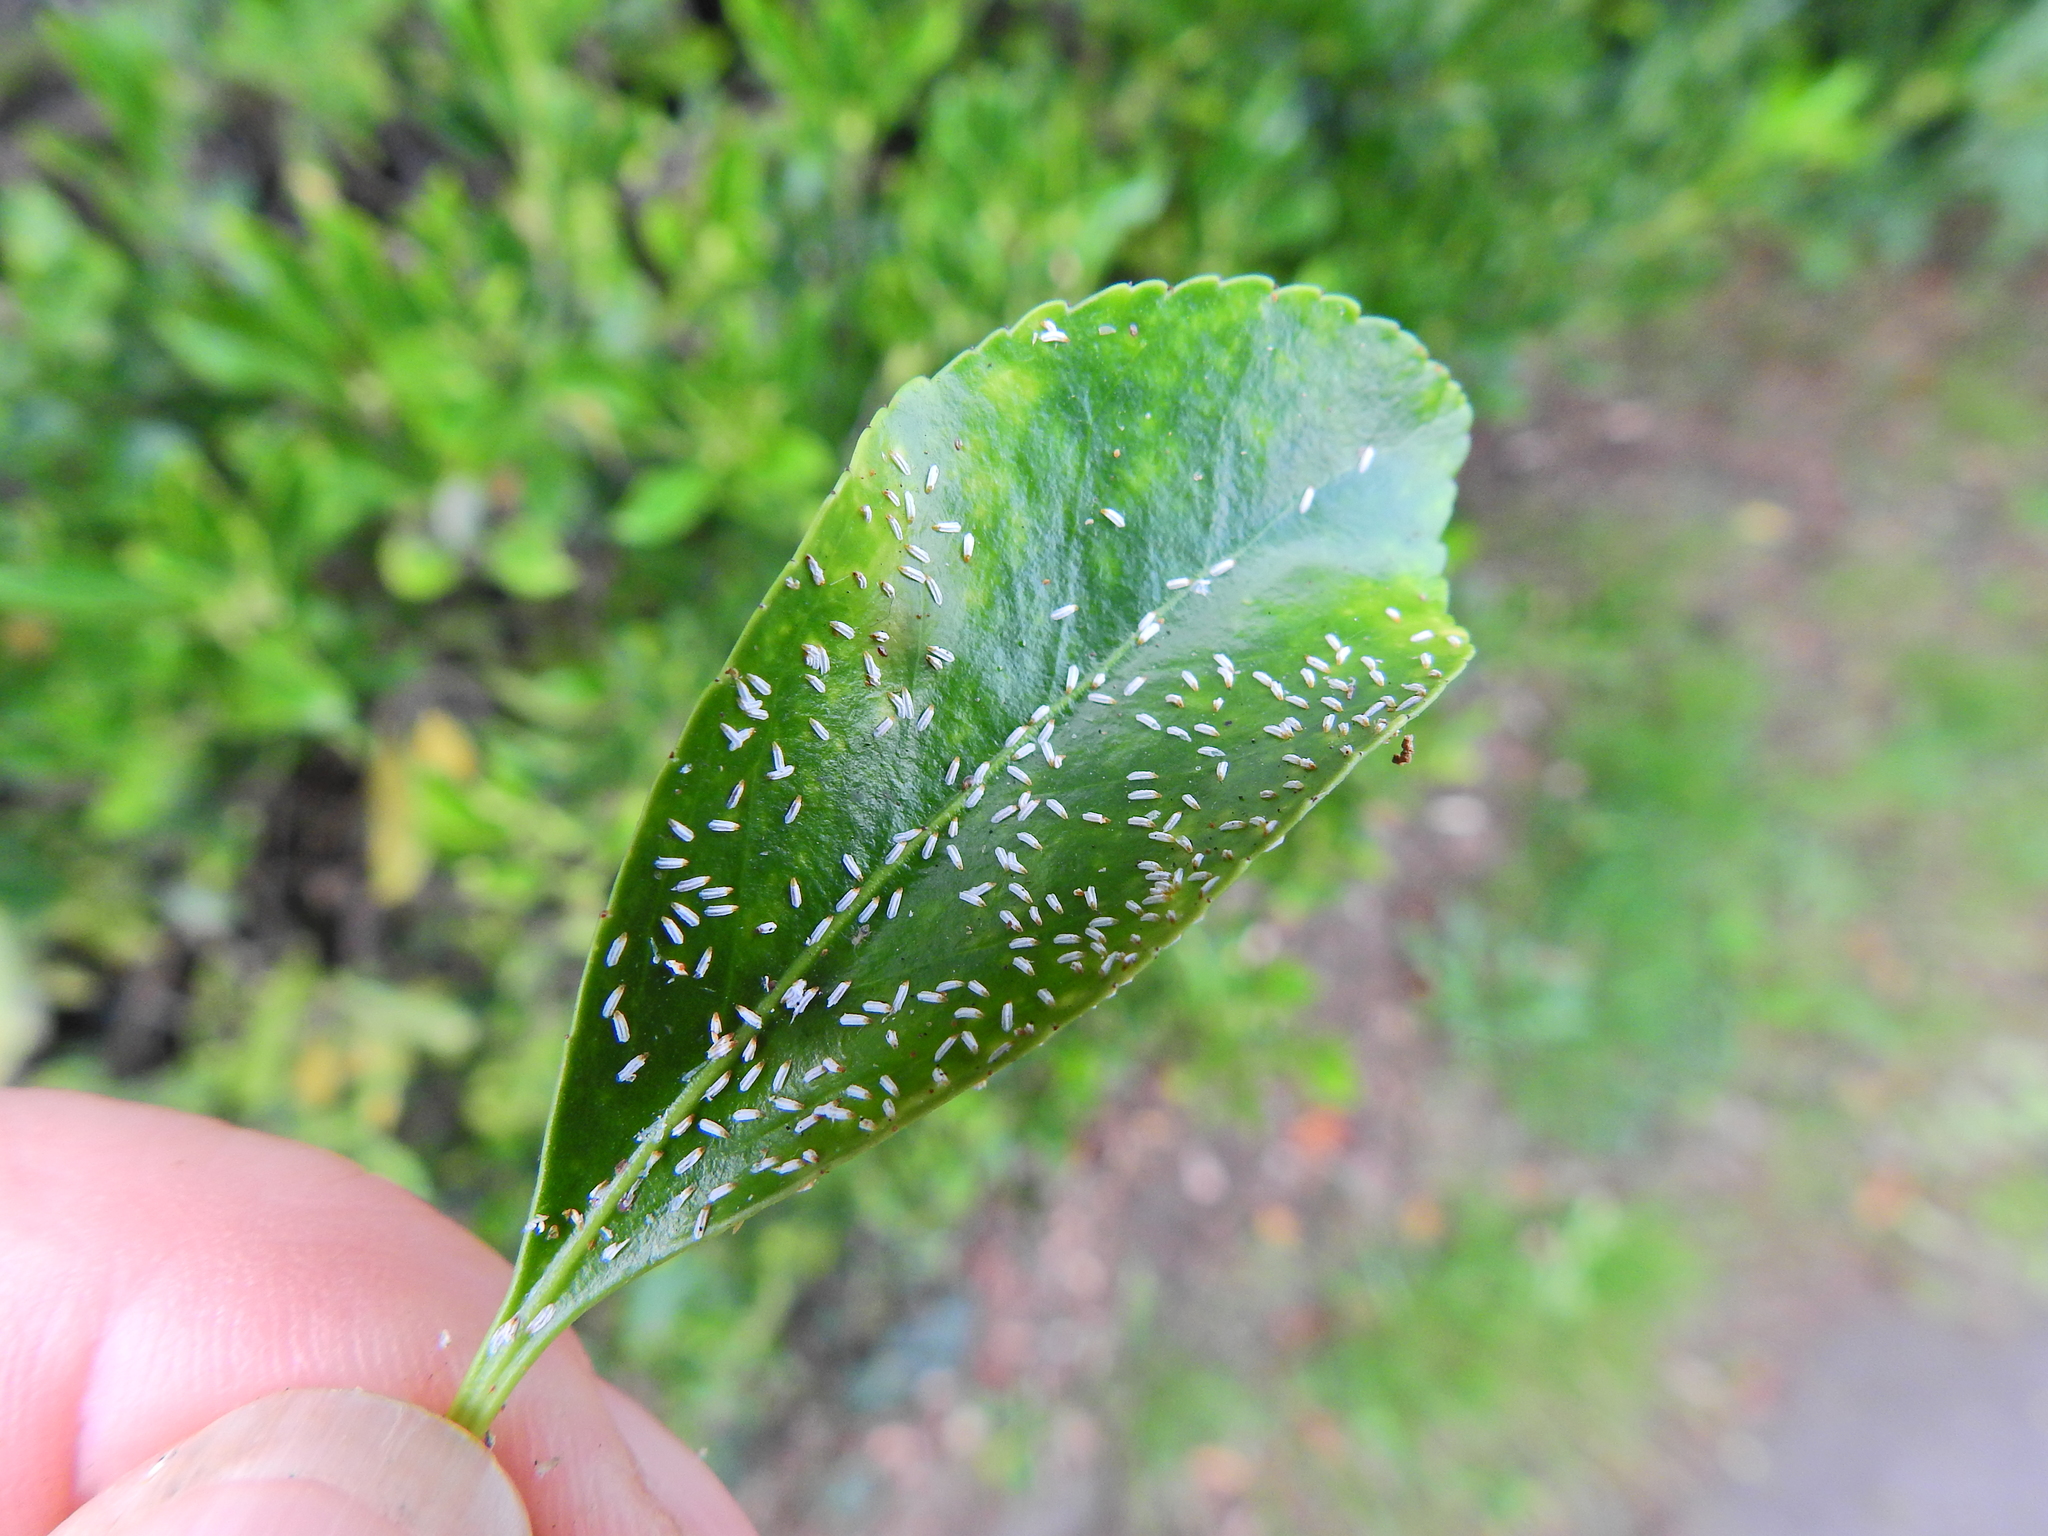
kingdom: Animalia
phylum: Arthropoda
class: Insecta
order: Hemiptera
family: Diaspididae
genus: Unaspis
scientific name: Unaspis euonymi
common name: Euonymus scale
